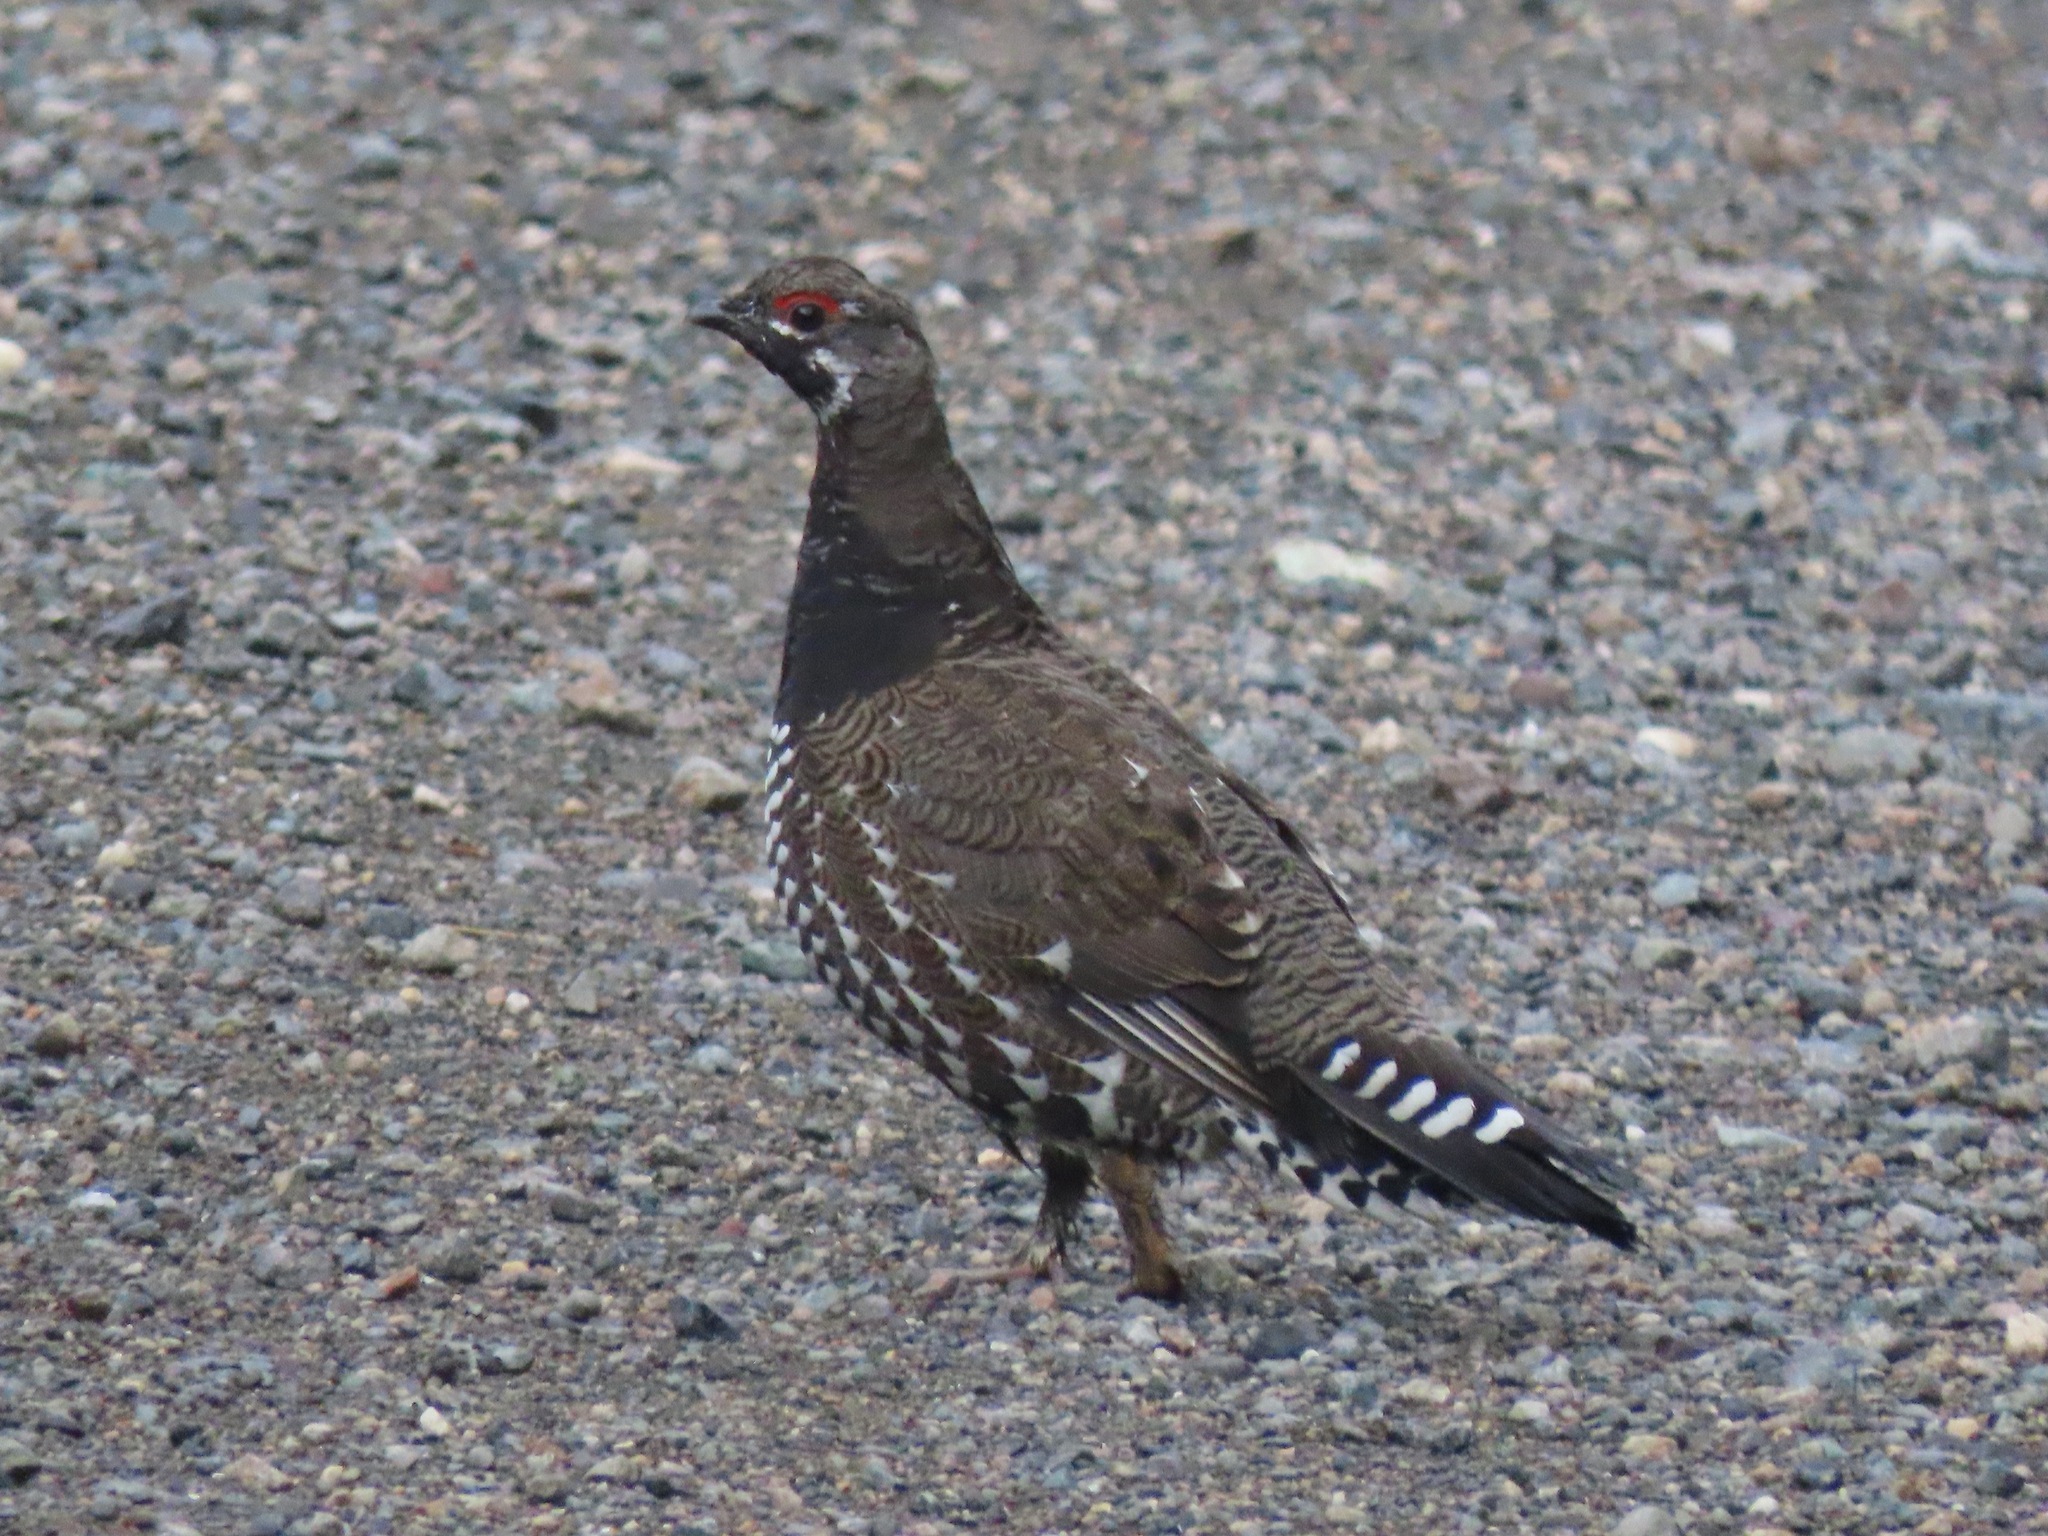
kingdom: Animalia
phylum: Chordata
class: Aves
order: Galliformes
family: Phasianidae
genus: Canachites
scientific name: Canachites canadensis
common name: Spruce grouse
